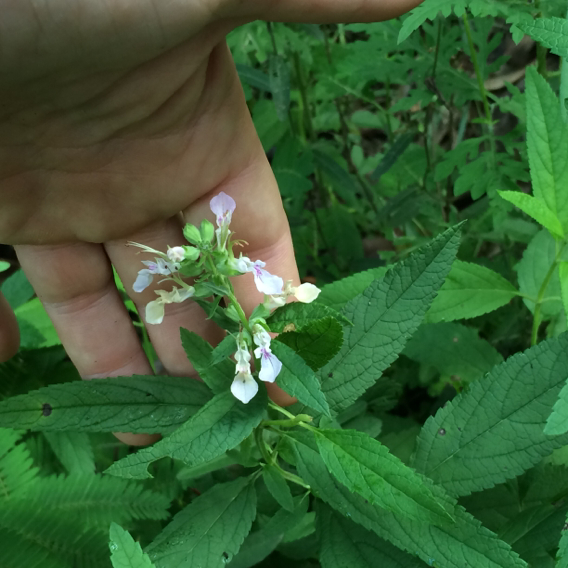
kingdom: Plantae
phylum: Tracheophyta
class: Magnoliopsida
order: Lamiales
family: Lamiaceae
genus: Teucrium
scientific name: Teucrium canadense
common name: American germander
